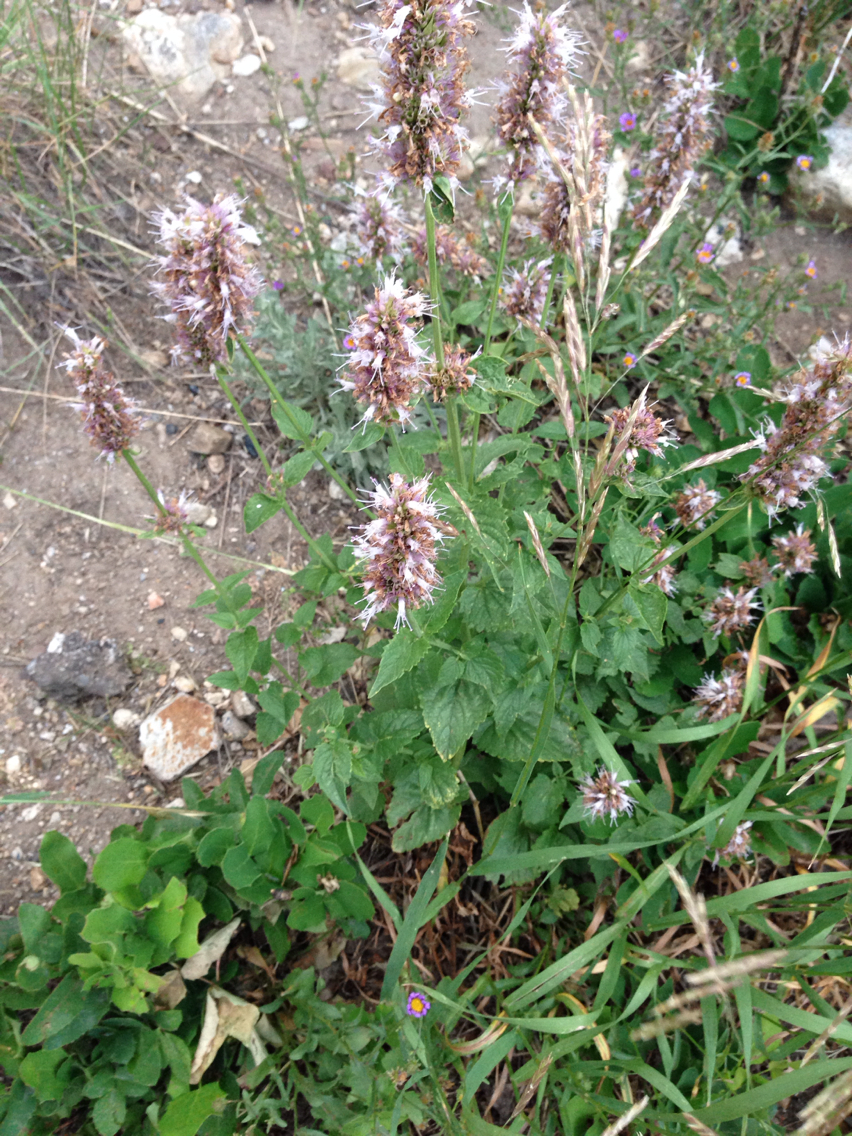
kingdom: Plantae
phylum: Tracheophyta
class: Magnoliopsida
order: Lamiales
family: Lamiaceae
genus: Agastache
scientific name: Agastache urticifolia
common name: Horsemint giant hyssop
